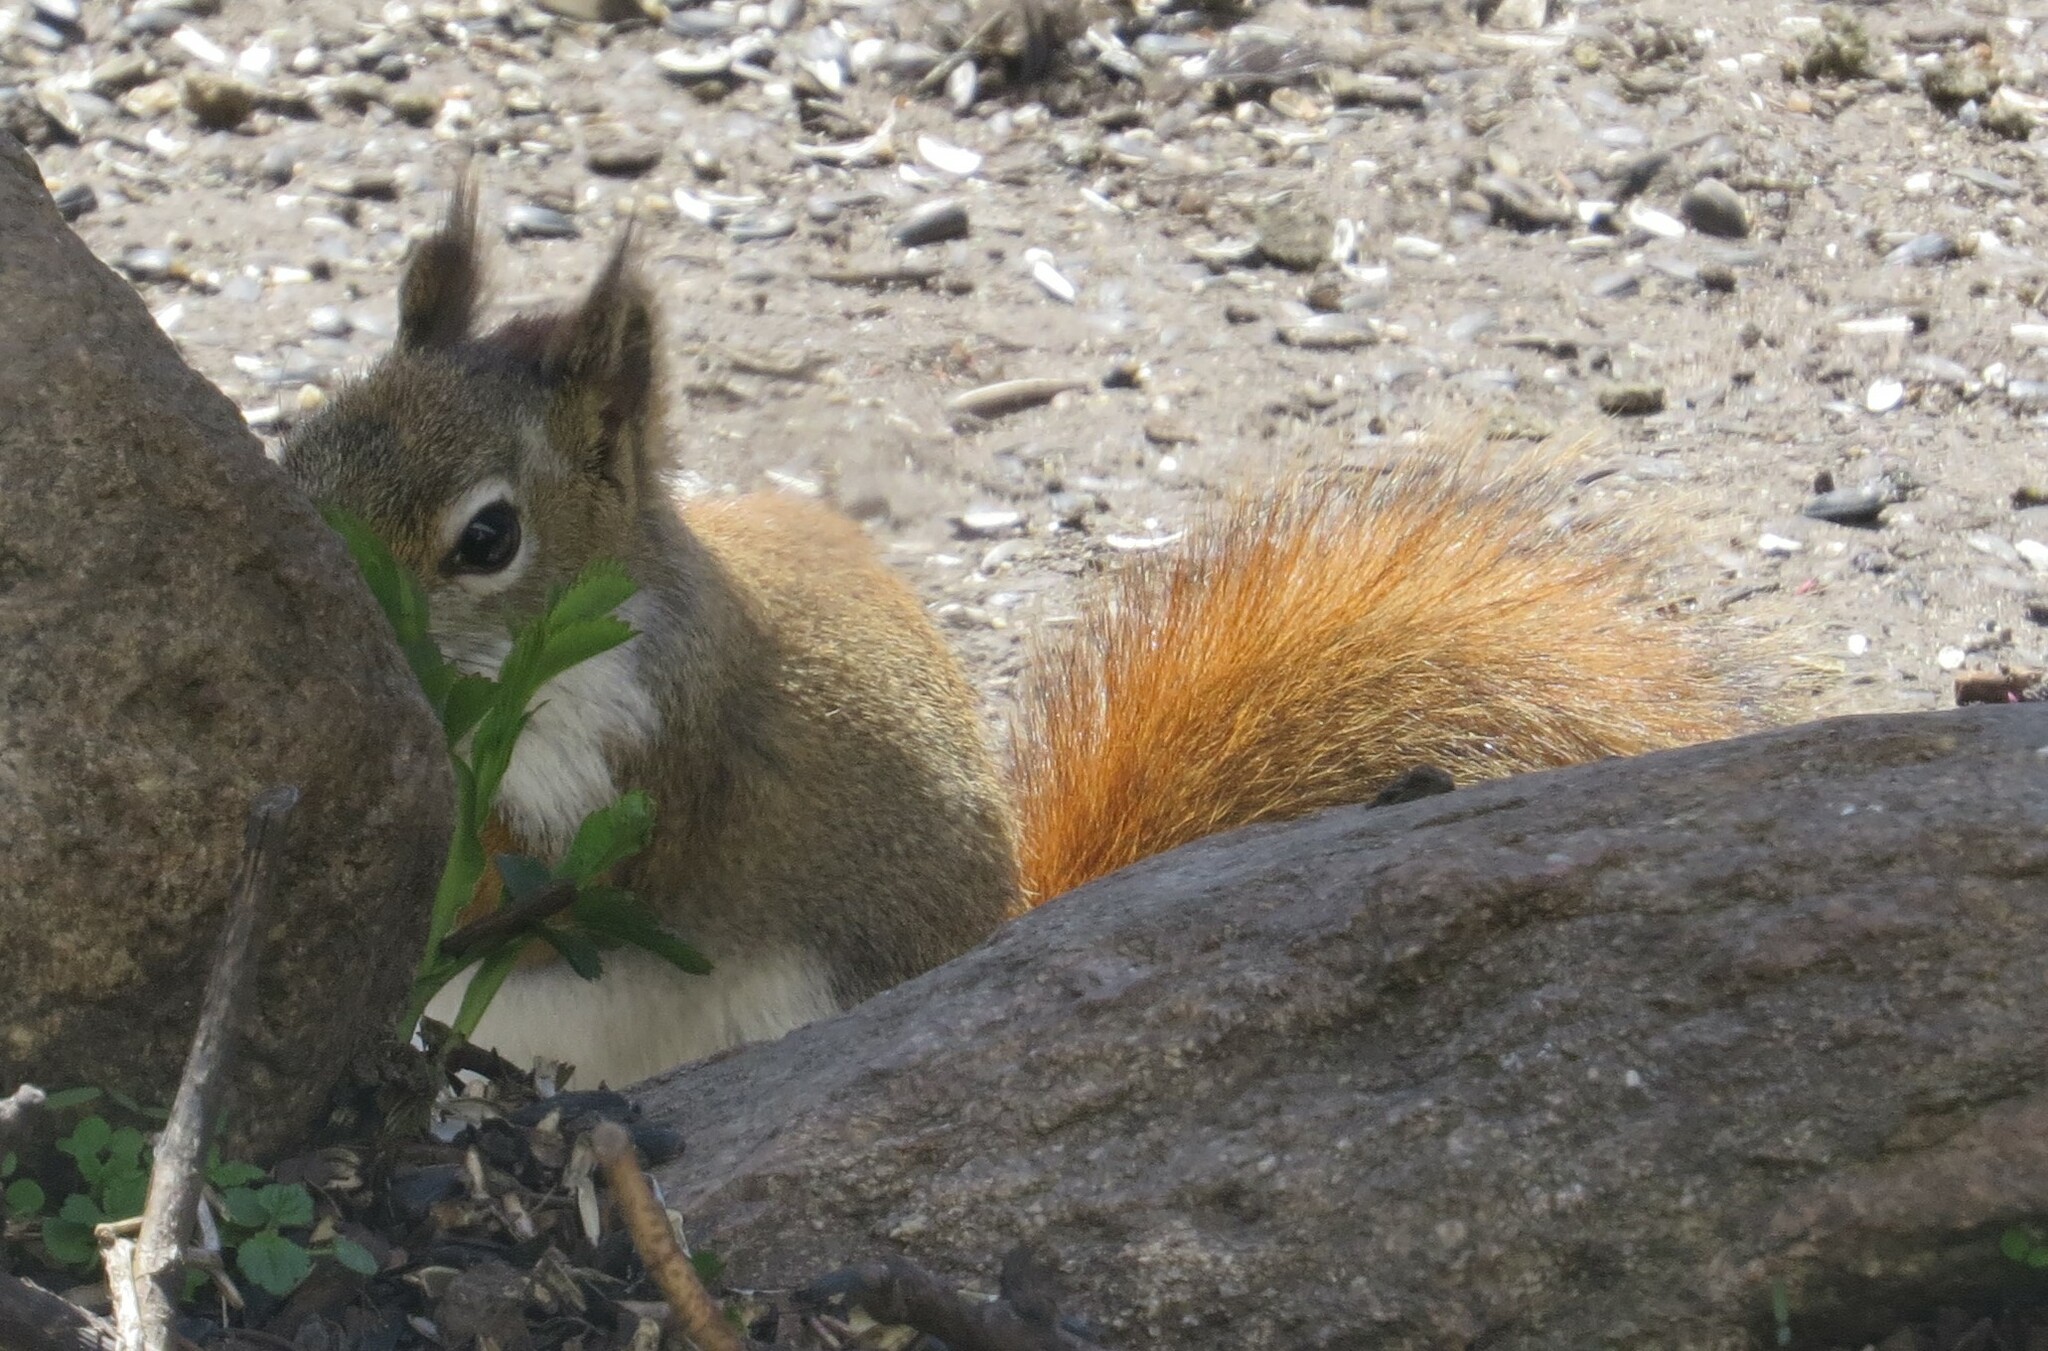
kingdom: Animalia
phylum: Chordata
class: Mammalia
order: Rodentia
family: Sciuridae
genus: Tamiasciurus
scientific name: Tamiasciurus hudsonicus
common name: Red squirrel
